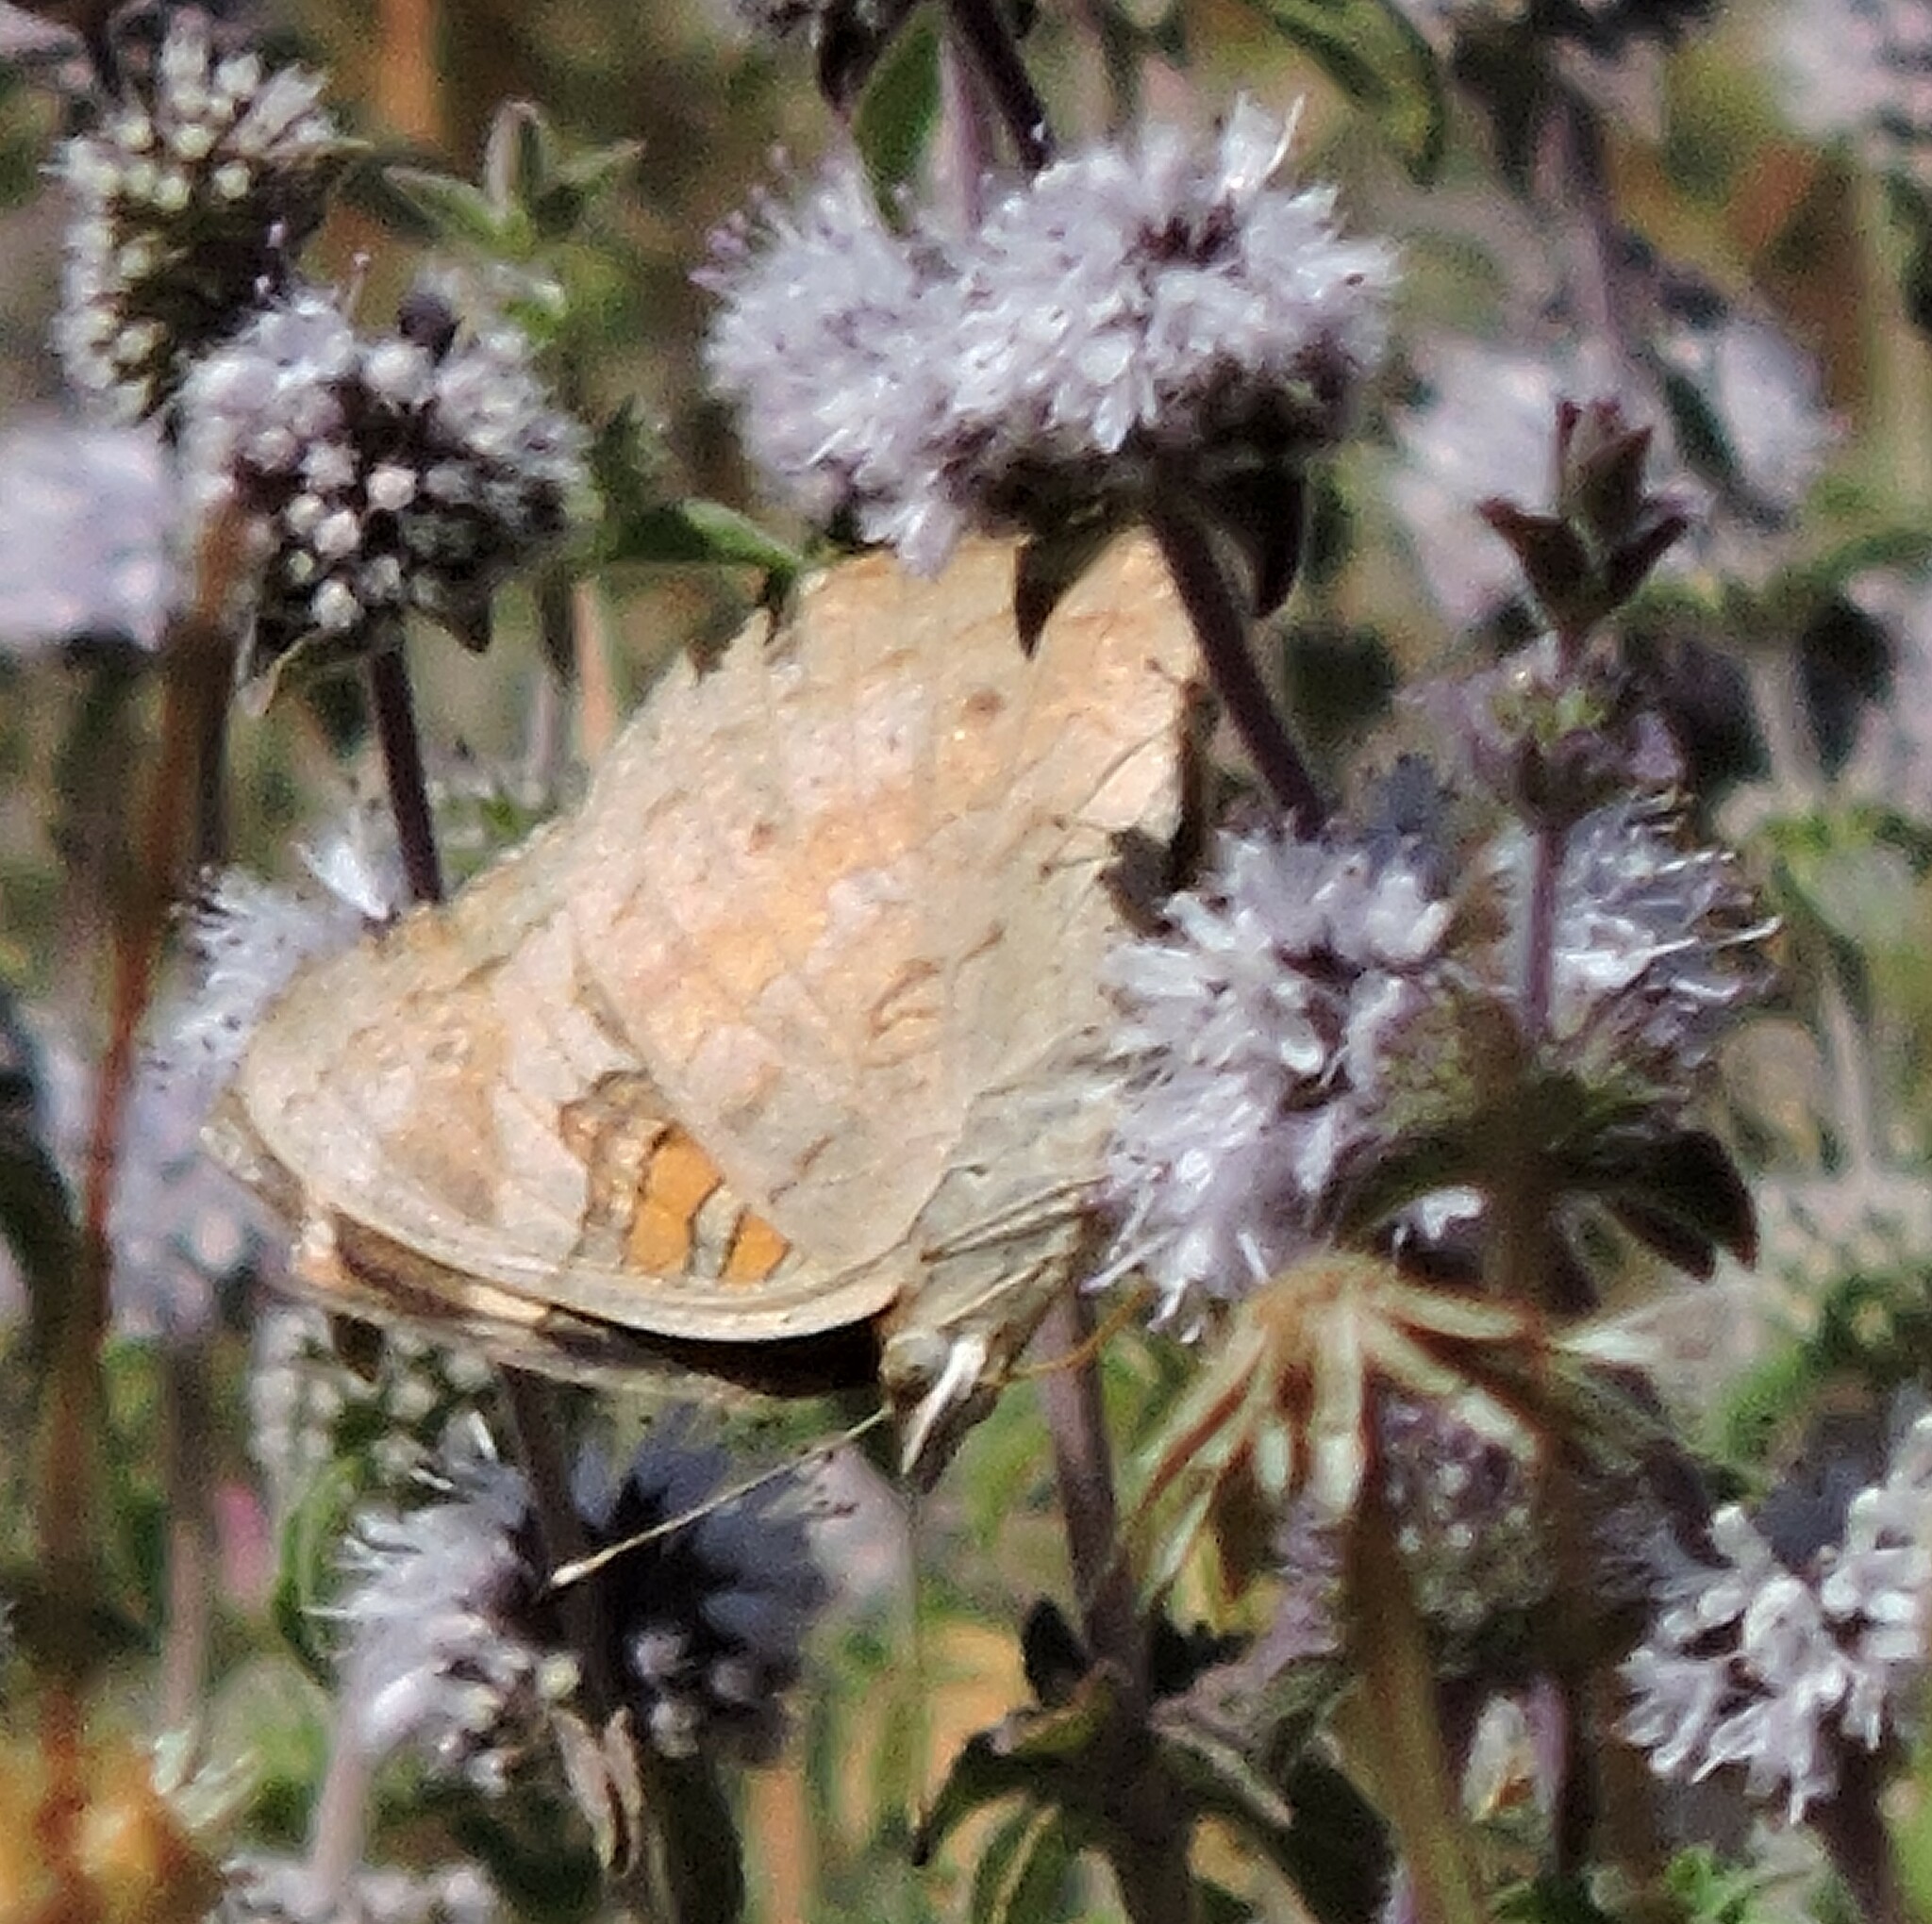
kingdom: Animalia
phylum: Arthropoda
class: Insecta
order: Lepidoptera
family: Nymphalidae
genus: Junonia
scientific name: Junonia grisea
